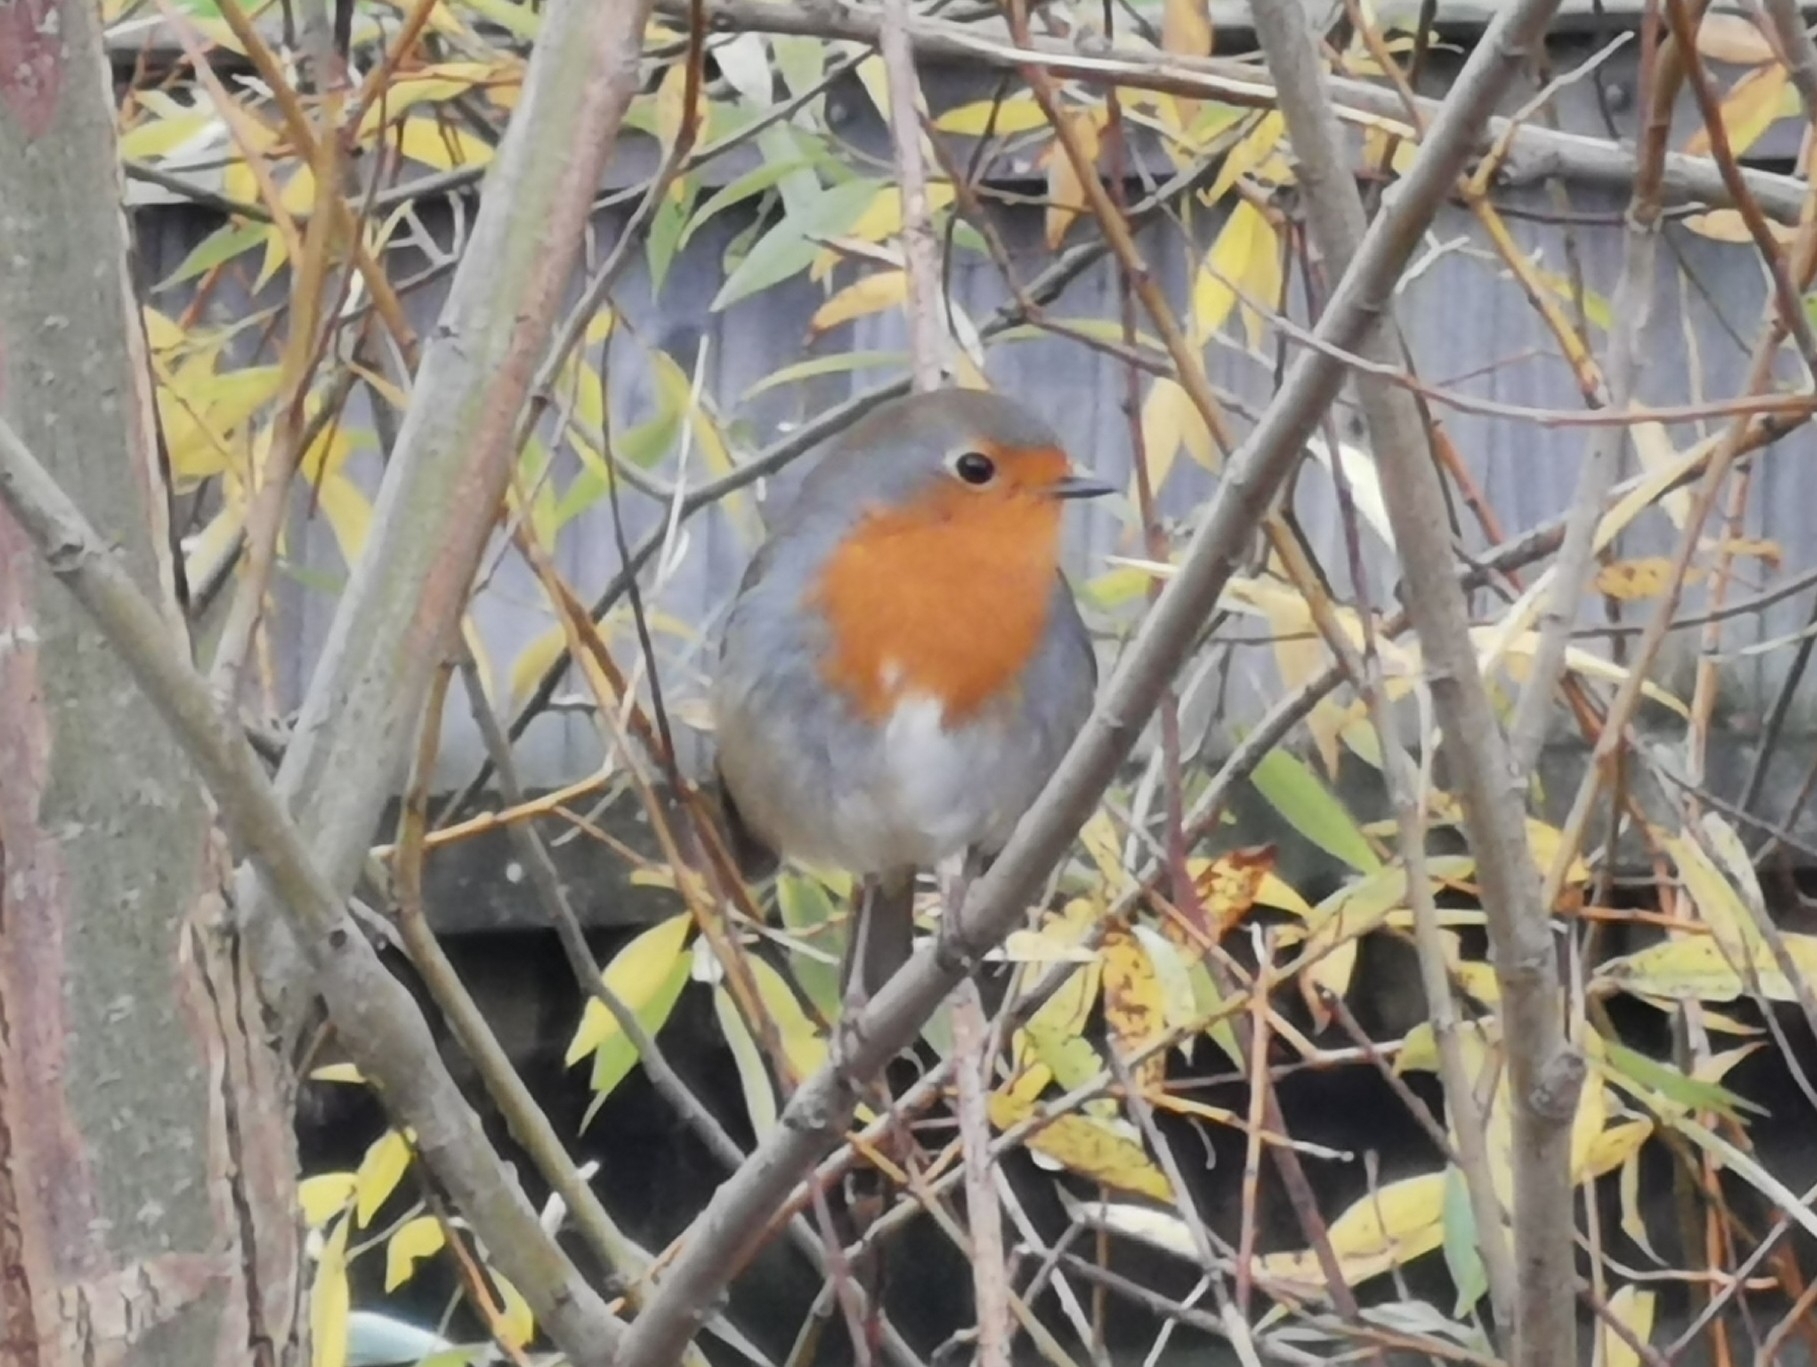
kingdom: Animalia
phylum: Chordata
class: Aves
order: Passeriformes
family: Muscicapidae
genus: Erithacus
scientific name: Erithacus rubecula
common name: European robin
